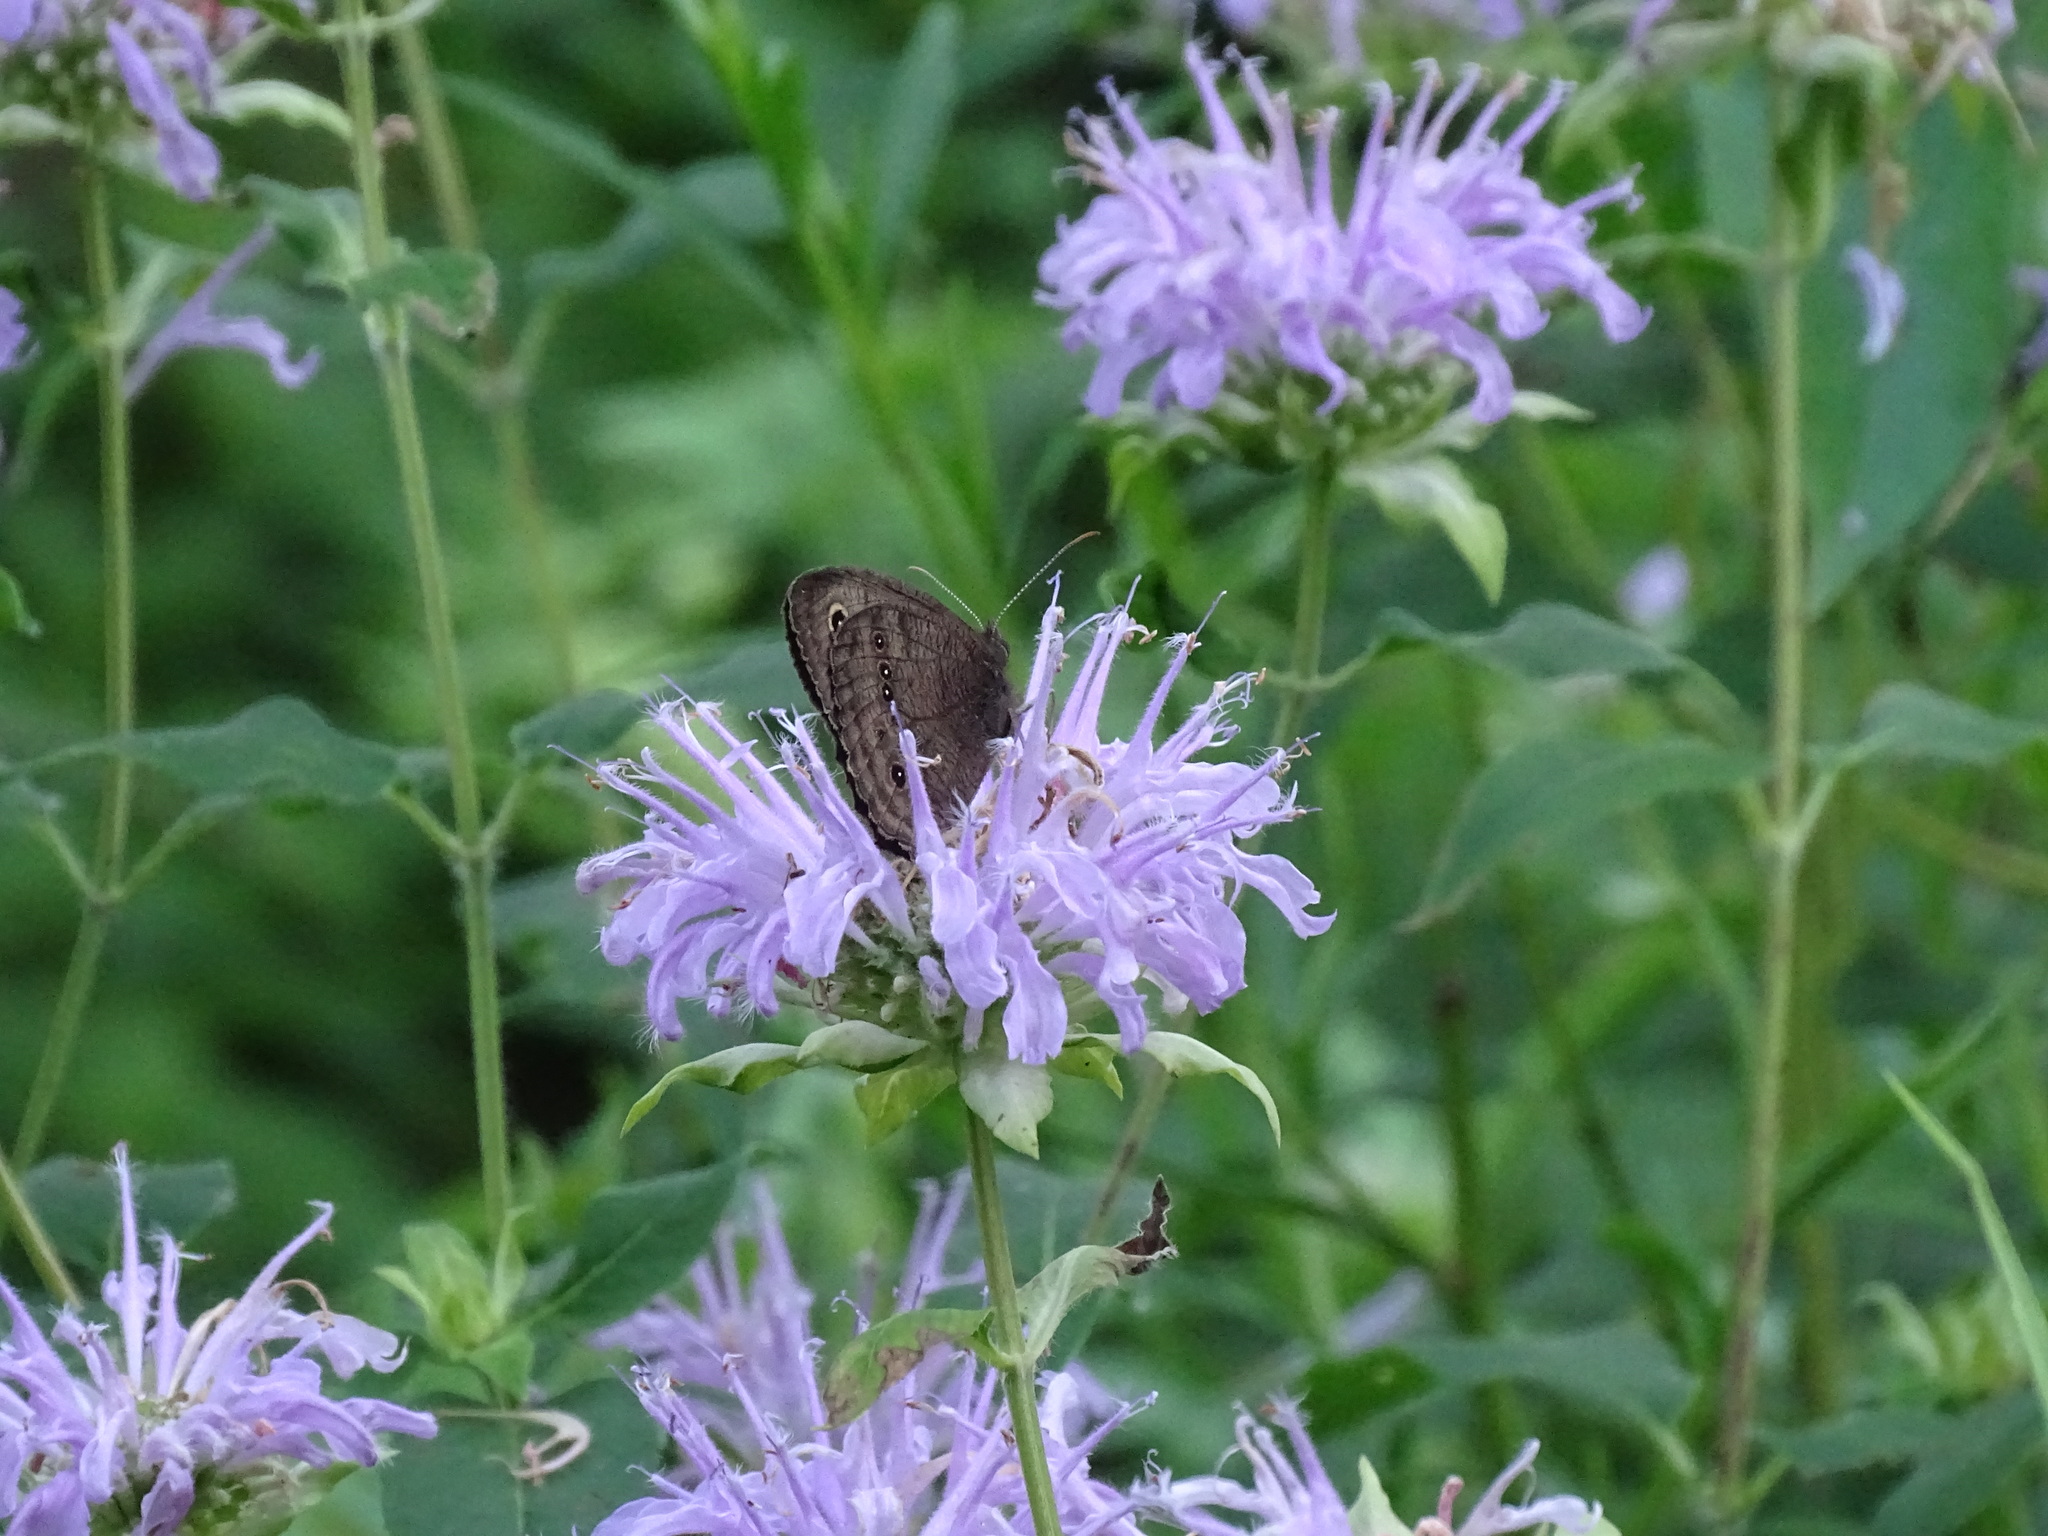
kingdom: Animalia
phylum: Arthropoda
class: Insecta
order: Lepidoptera
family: Nymphalidae
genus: Cercyonis
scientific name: Cercyonis pegala
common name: Common wood-nymph
